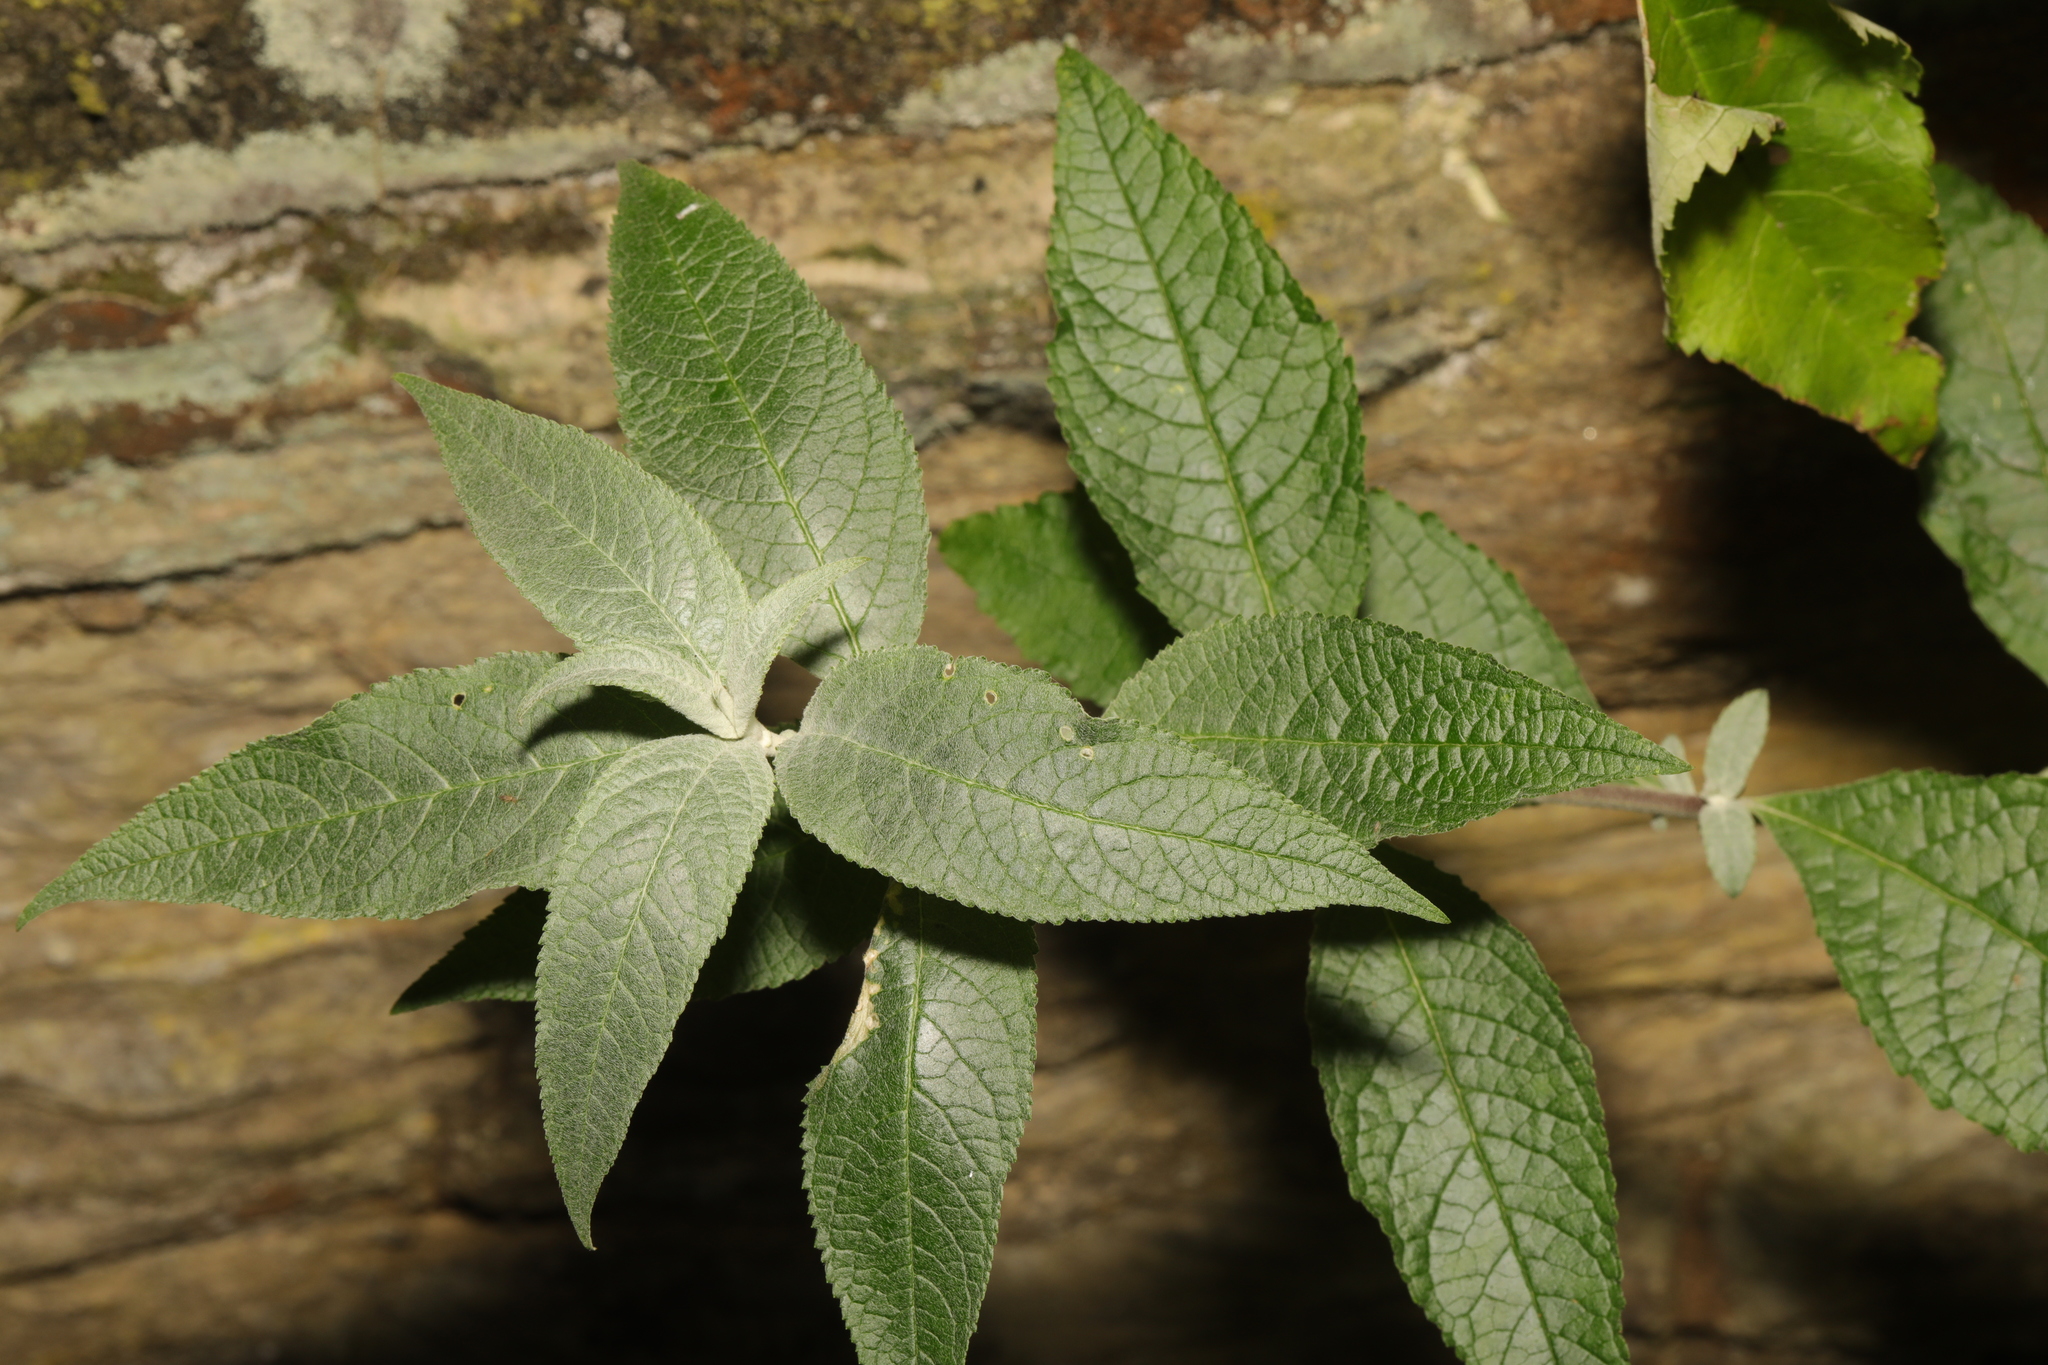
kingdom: Plantae
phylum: Tracheophyta
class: Magnoliopsida
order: Lamiales
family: Scrophulariaceae
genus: Buddleja
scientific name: Buddleja davidii
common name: Butterfly-bush
